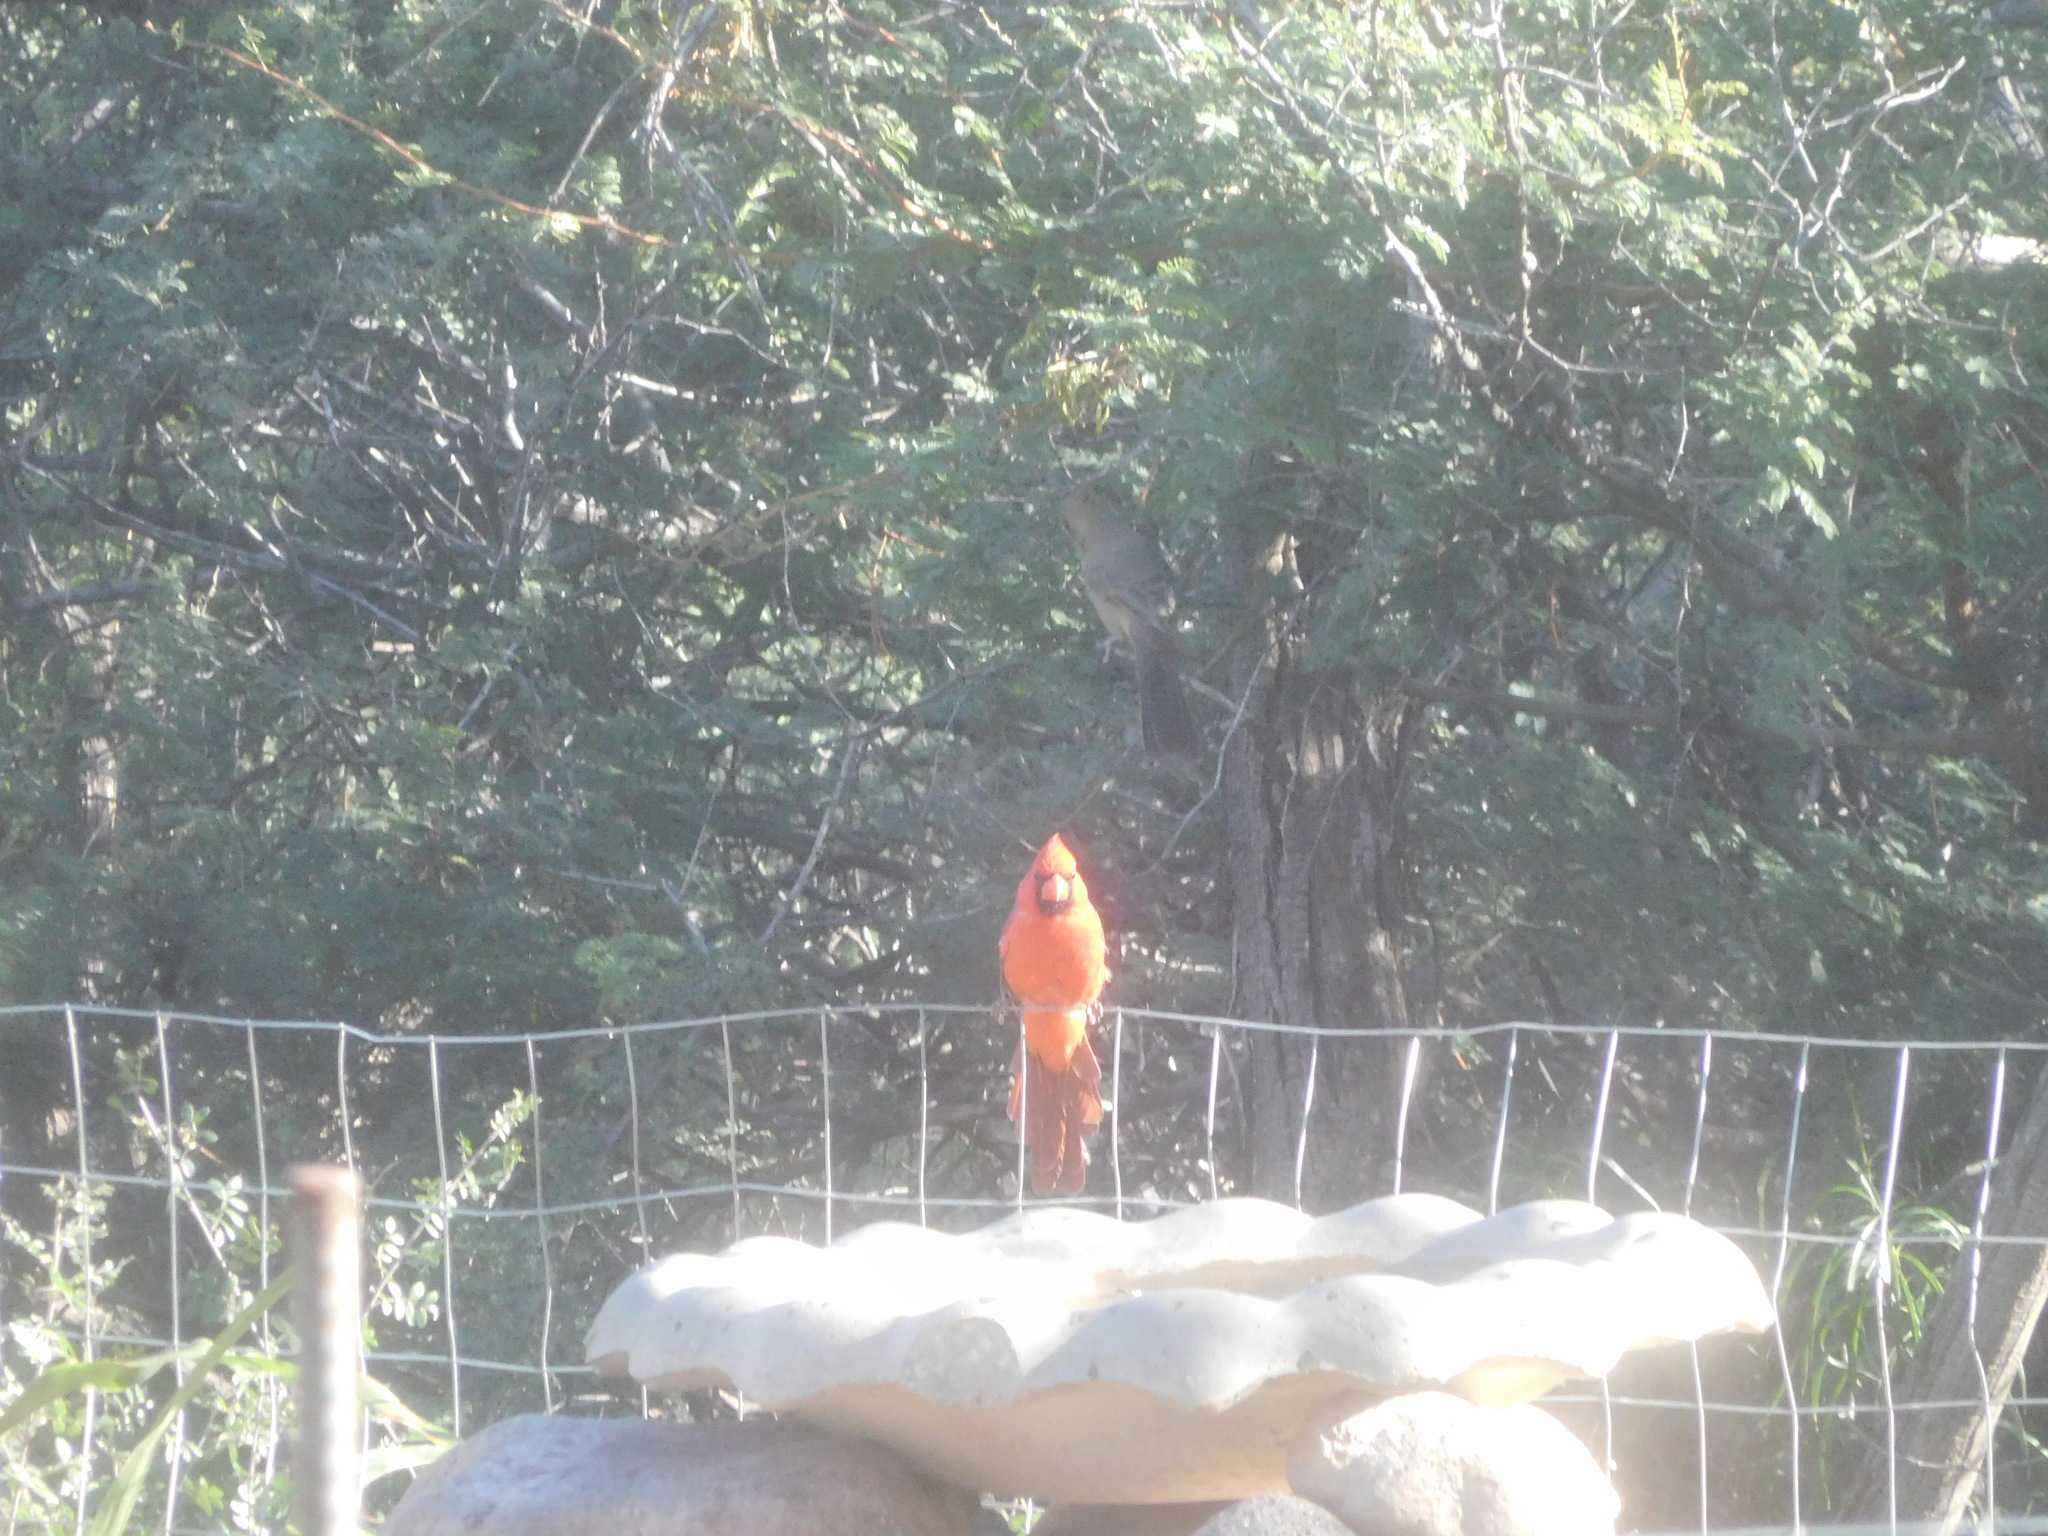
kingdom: Animalia
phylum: Chordata
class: Aves
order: Passeriformes
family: Cardinalidae
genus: Cardinalis
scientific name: Cardinalis cardinalis
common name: Northern cardinal
